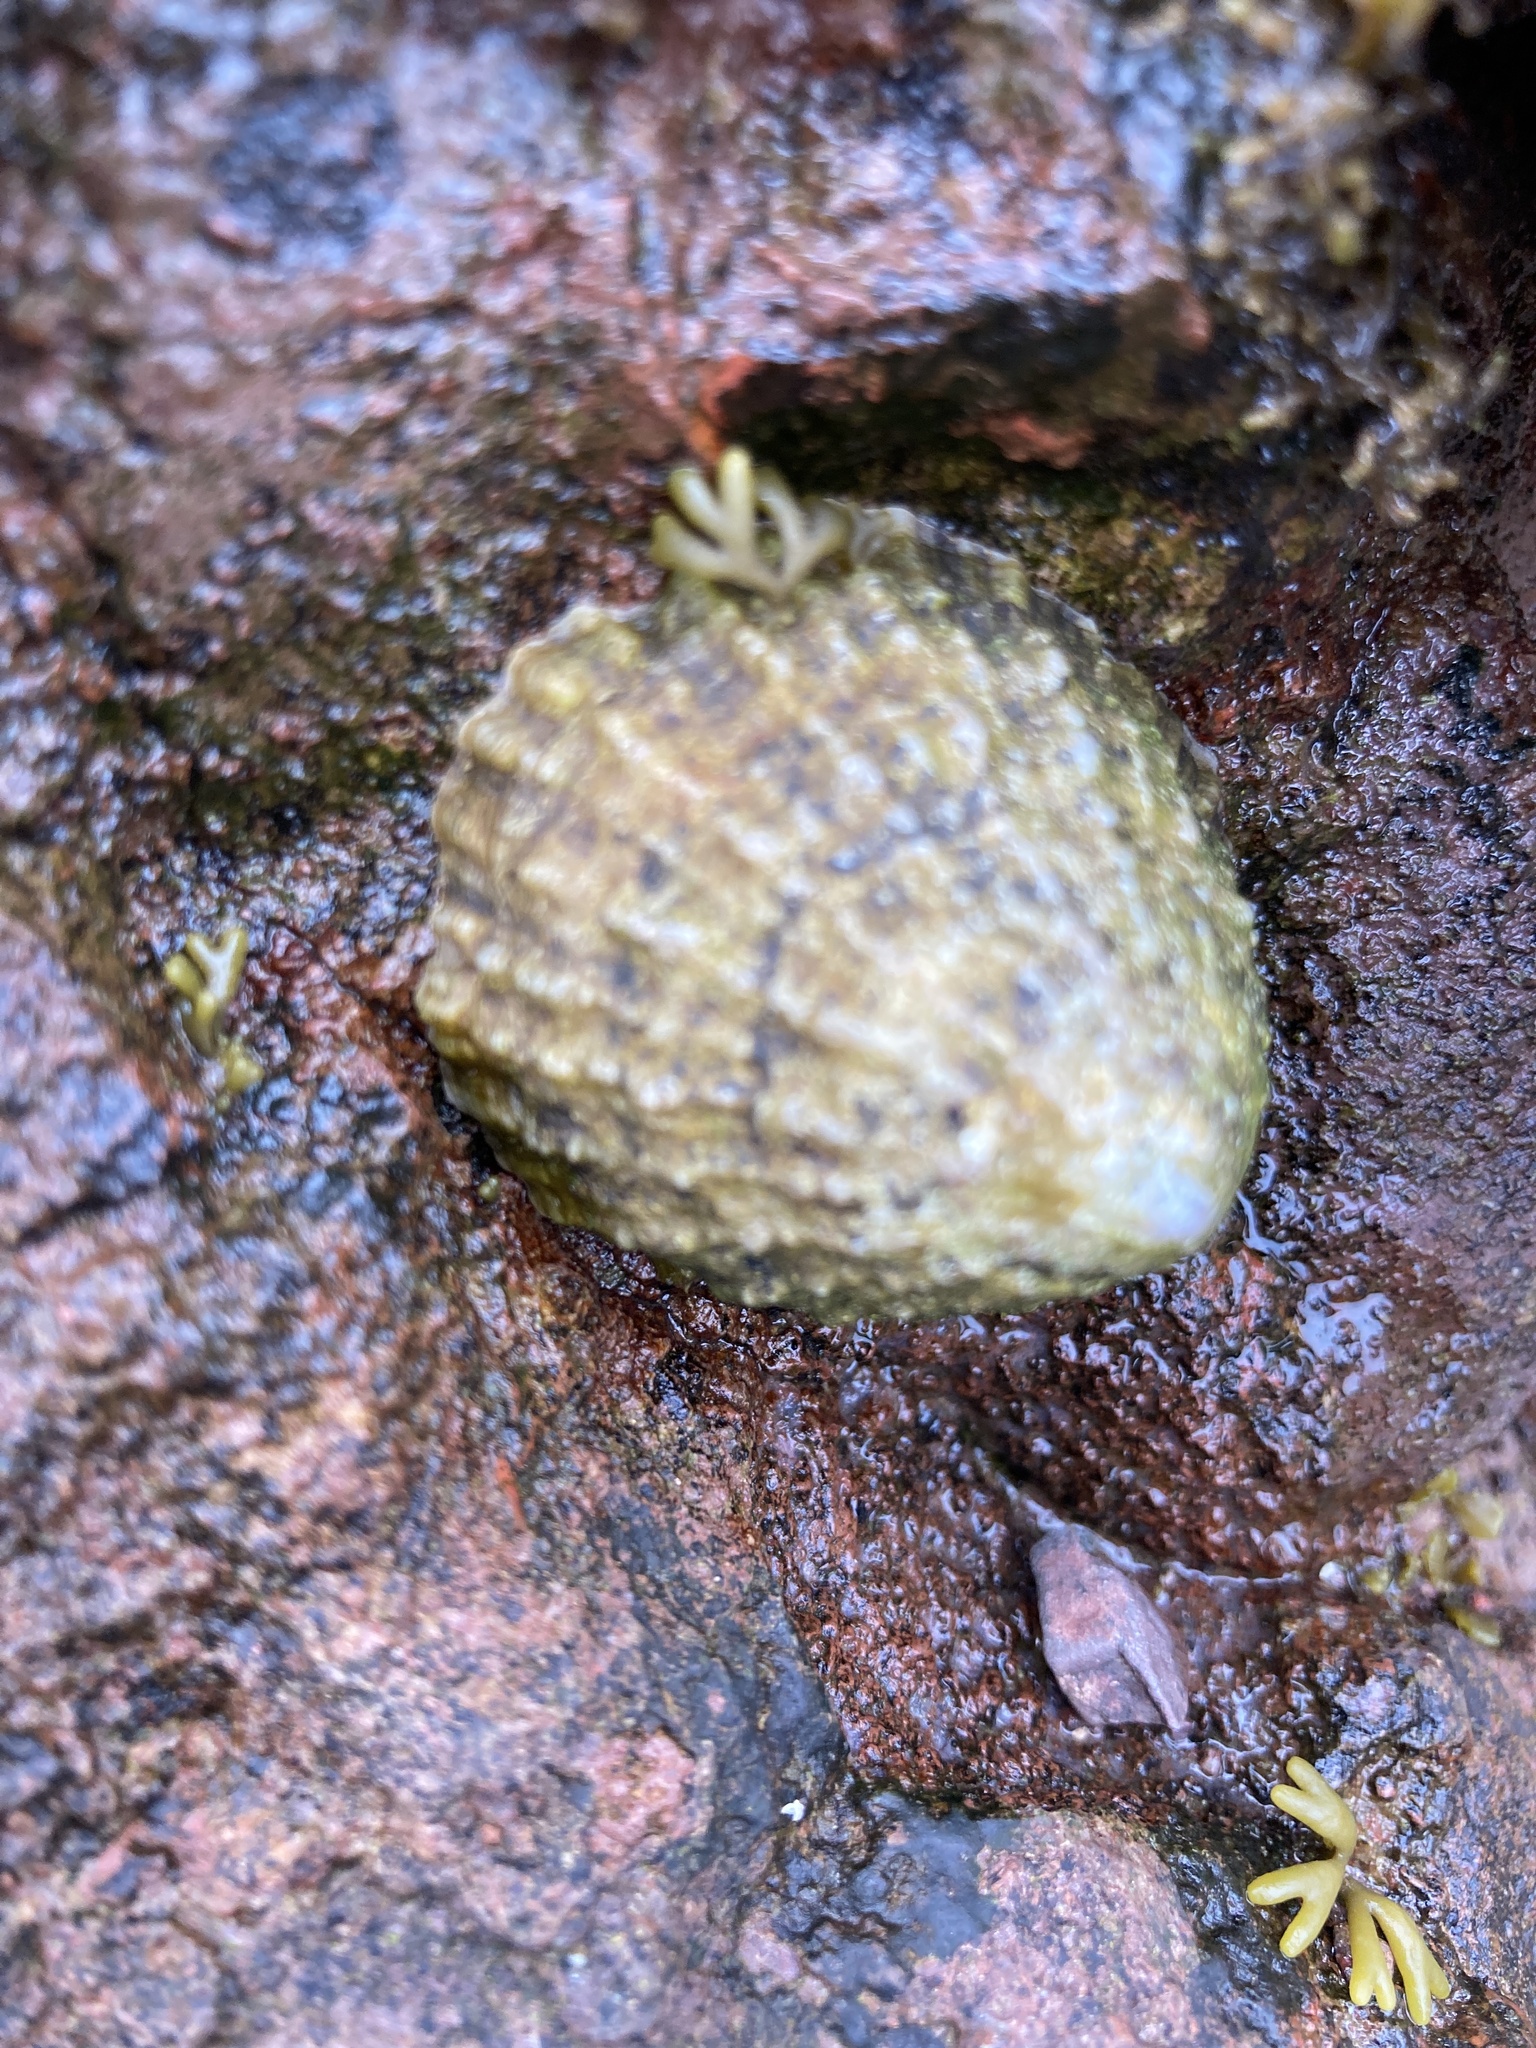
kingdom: Animalia
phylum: Mollusca
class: Gastropoda
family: Patellidae
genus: Patella
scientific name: Patella vulgata
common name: Common limpet
